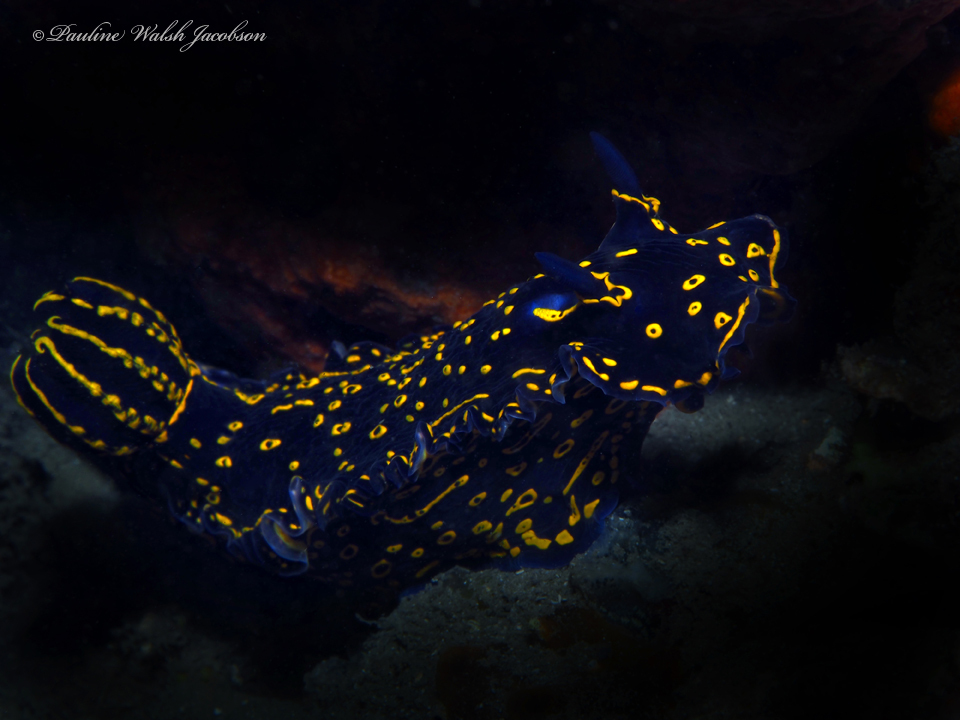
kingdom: Animalia
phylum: Mollusca
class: Gastropoda
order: Nudibranchia
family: Chromodorididae
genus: Felimare
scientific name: Felimare picta
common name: Giant doris
